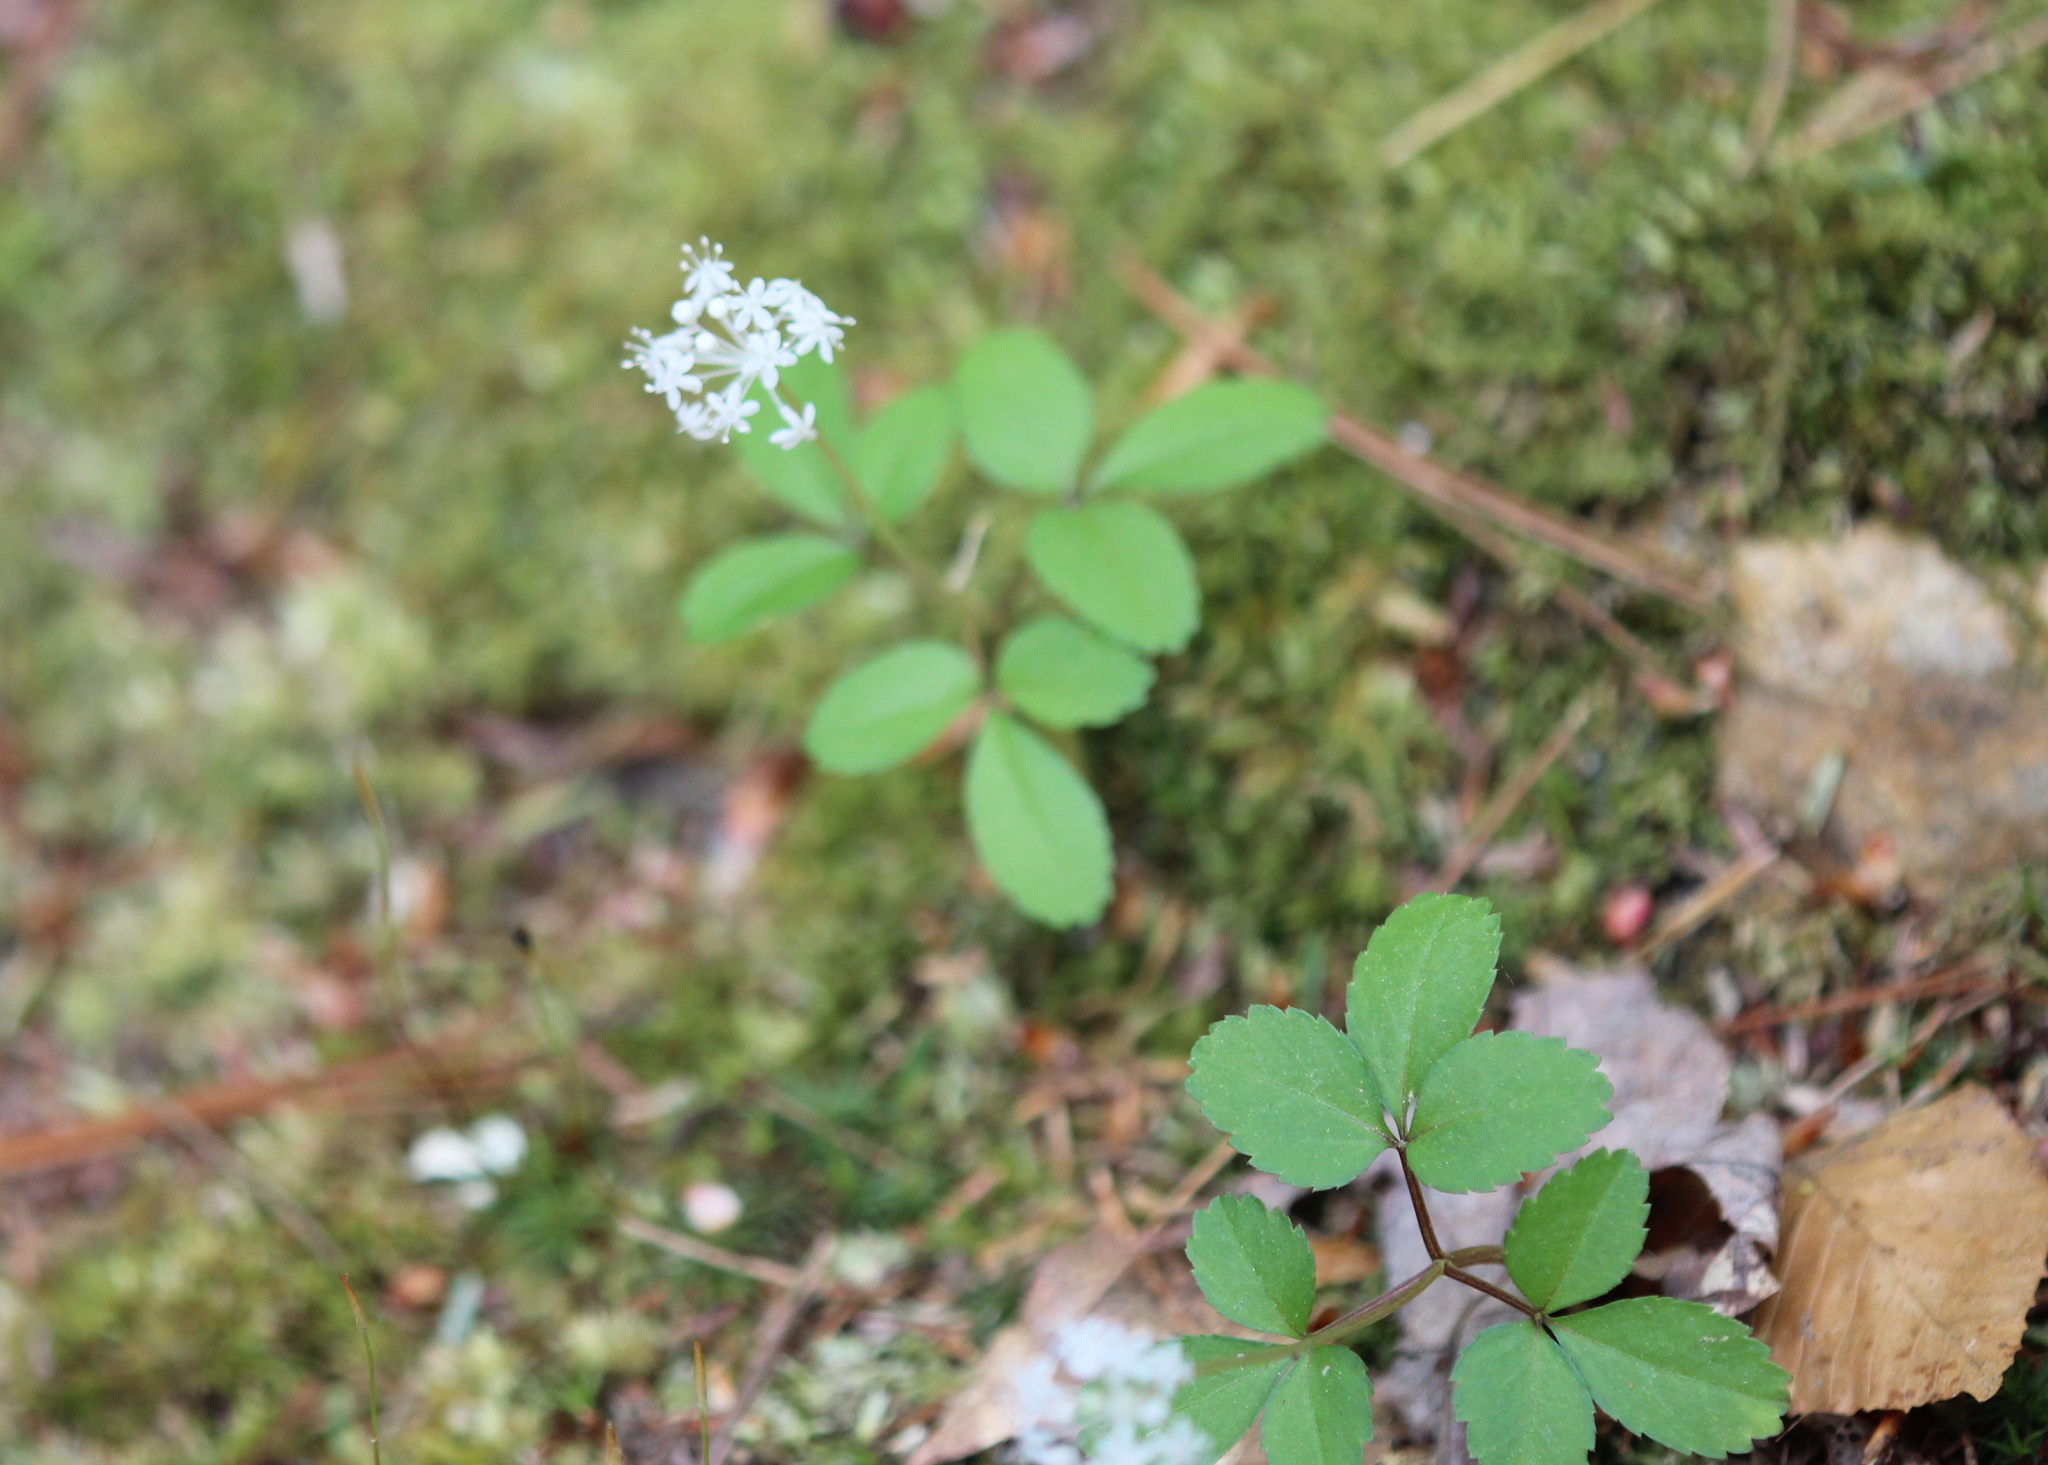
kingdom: Plantae
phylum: Tracheophyta
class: Magnoliopsida
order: Apiales
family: Araliaceae
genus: Panax
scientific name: Panax trifolius
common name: Dwarf ginseng
